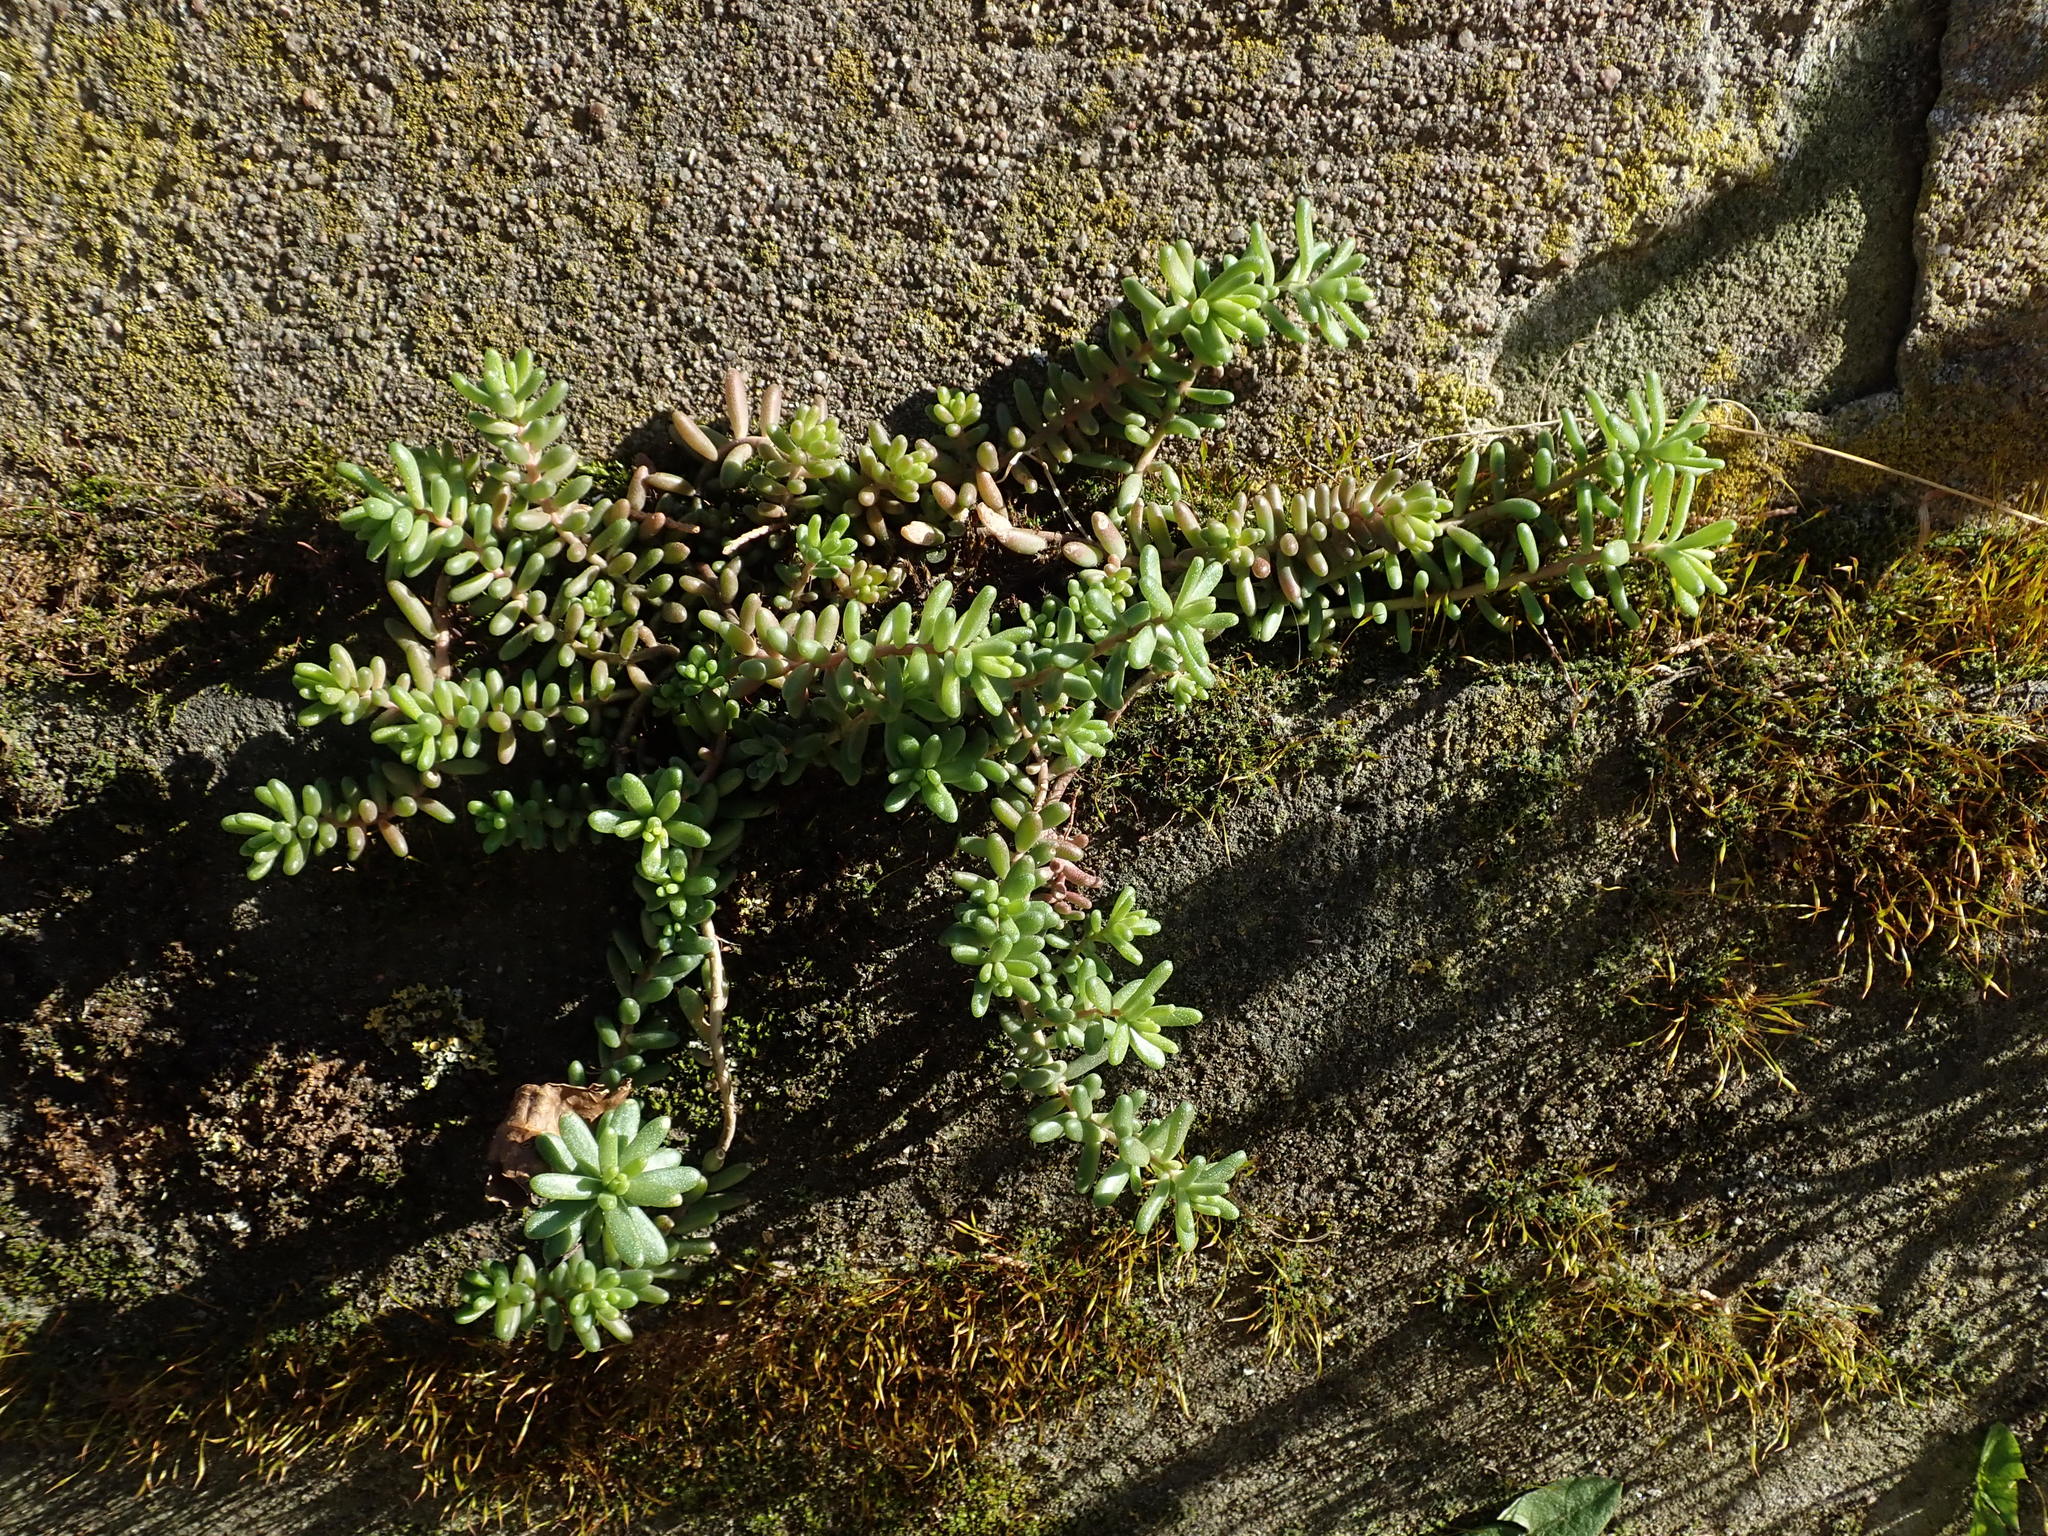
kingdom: Plantae
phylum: Tracheophyta
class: Magnoliopsida
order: Saxifragales
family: Crassulaceae
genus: Sedum
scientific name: Sedum album
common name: White stonecrop
